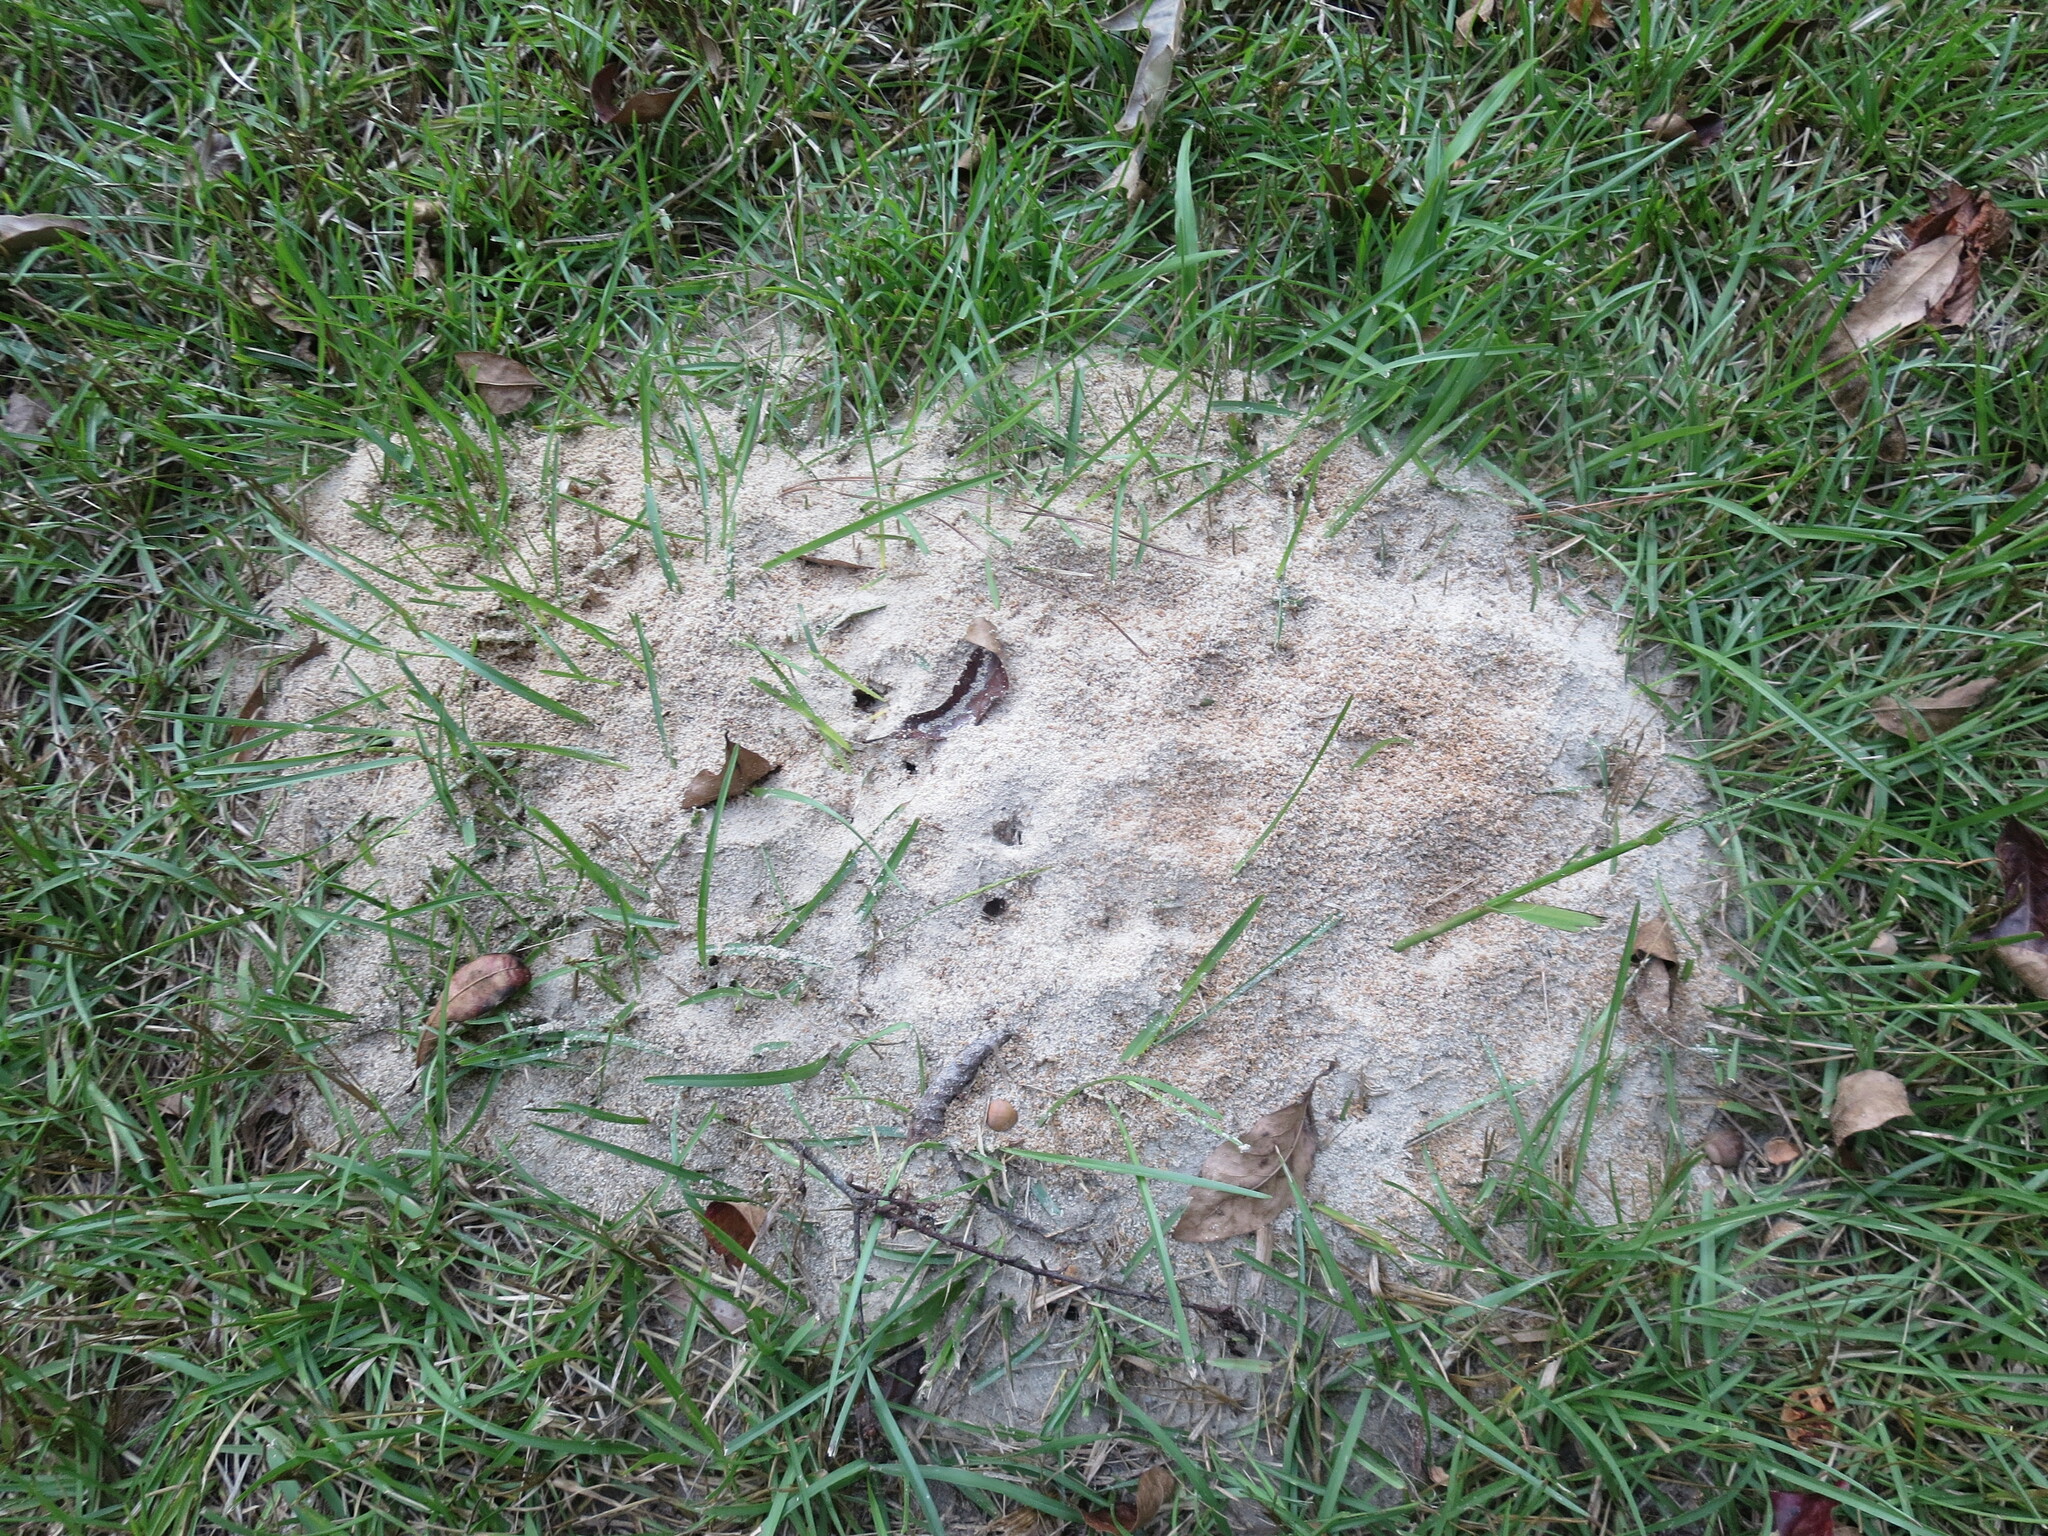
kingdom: Animalia
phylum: Arthropoda
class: Insecta
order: Hymenoptera
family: Formicidae
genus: Solenopsis
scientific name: Solenopsis invicta
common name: Red imported fire ant
